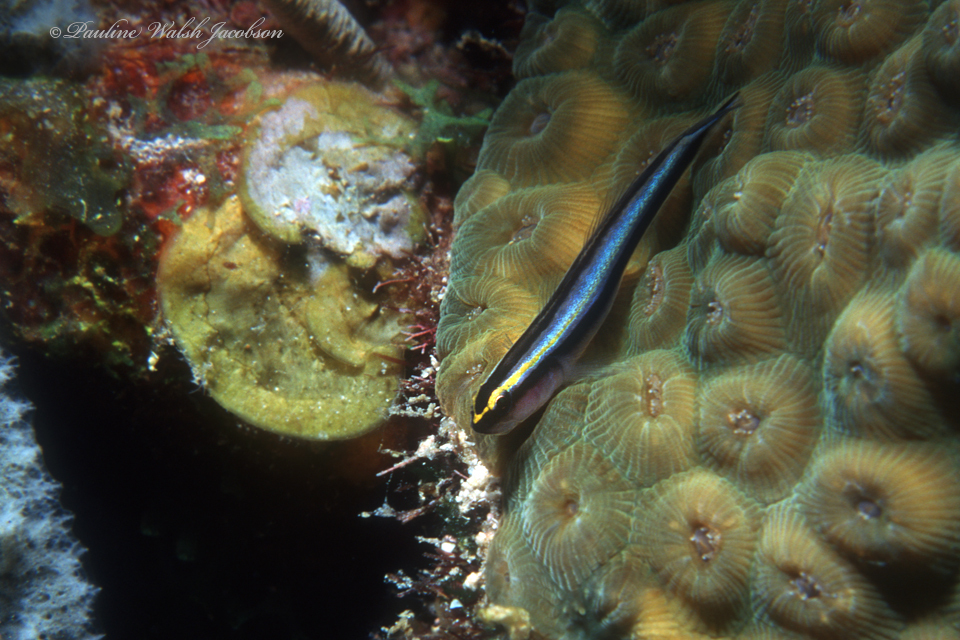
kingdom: Animalia
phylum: Chordata
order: Perciformes
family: Gobiidae
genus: Elacatinus
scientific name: Elacatinus evelynae
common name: Sharknose goby
